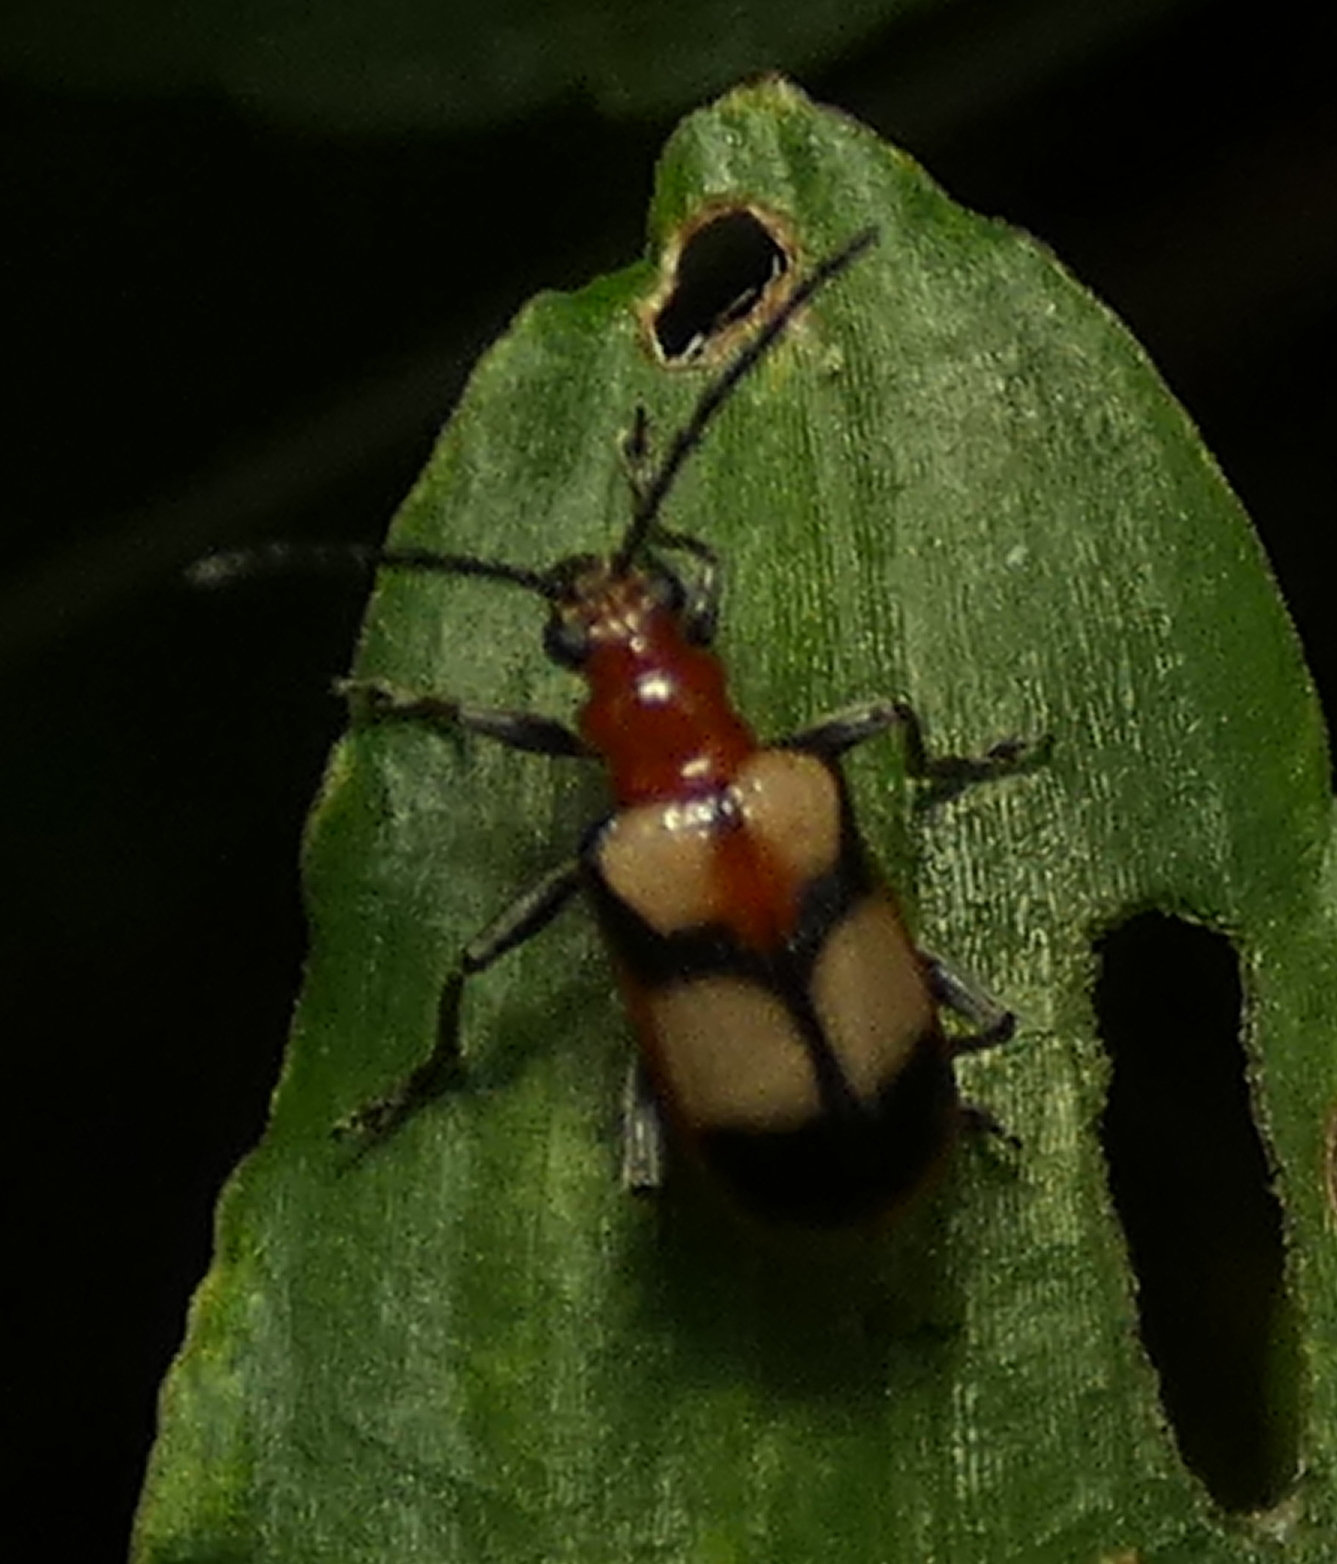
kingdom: Animalia
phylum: Arthropoda
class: Insecta
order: Coleoptera
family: Chrysomelidae
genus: Neolema
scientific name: Neolema
